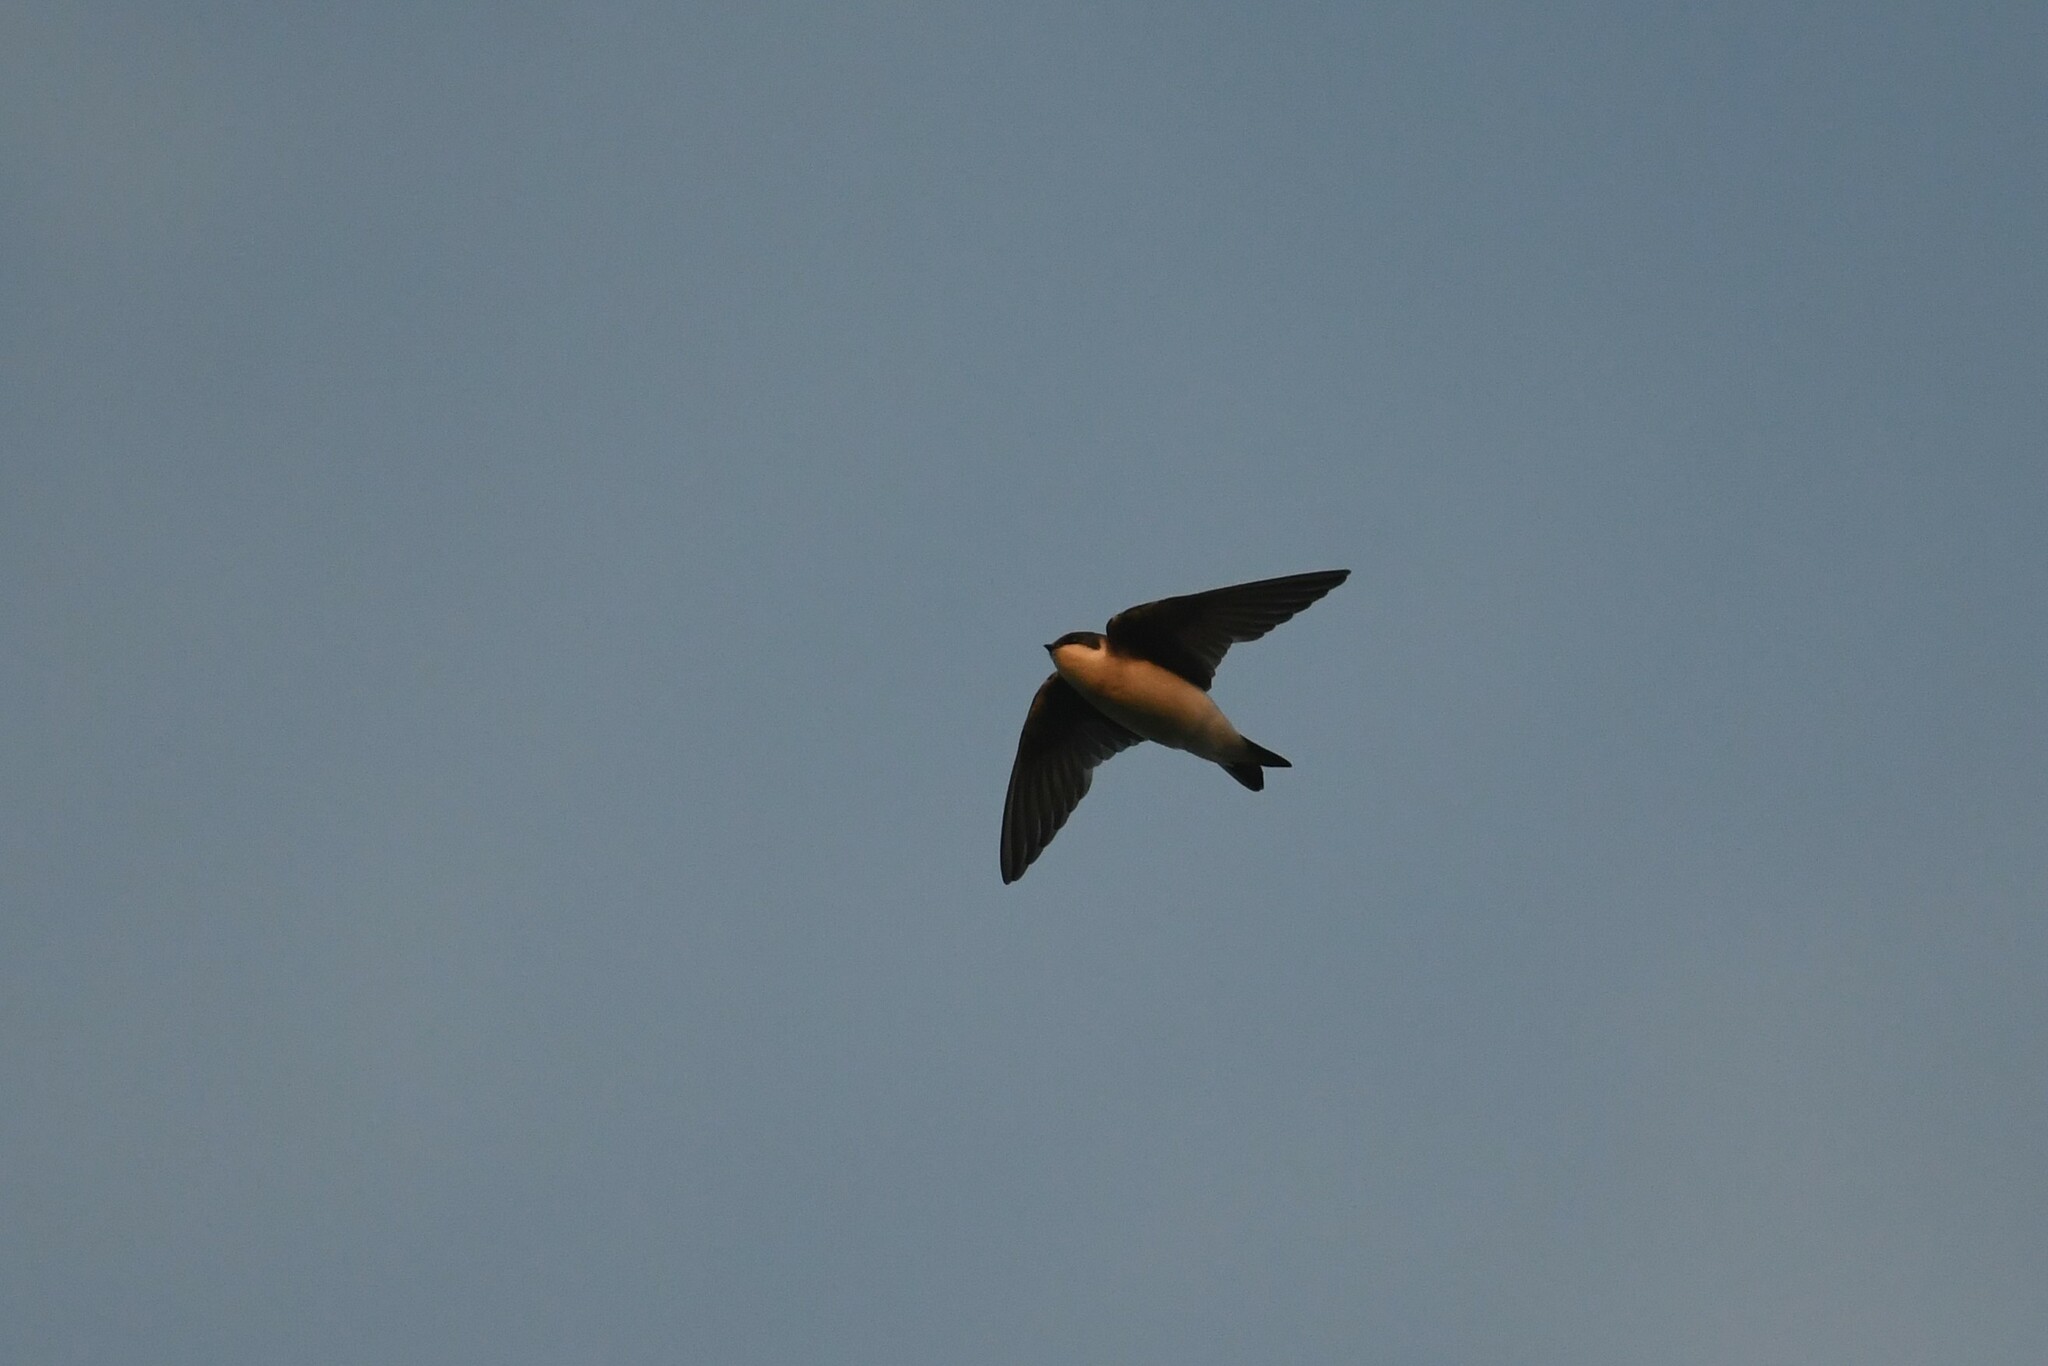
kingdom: Animalia
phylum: Chordata
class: Aves
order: Passeriformes
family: Hirundinidae
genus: Tachycineta
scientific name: Tachycineta bicolor
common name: Tree swallow
